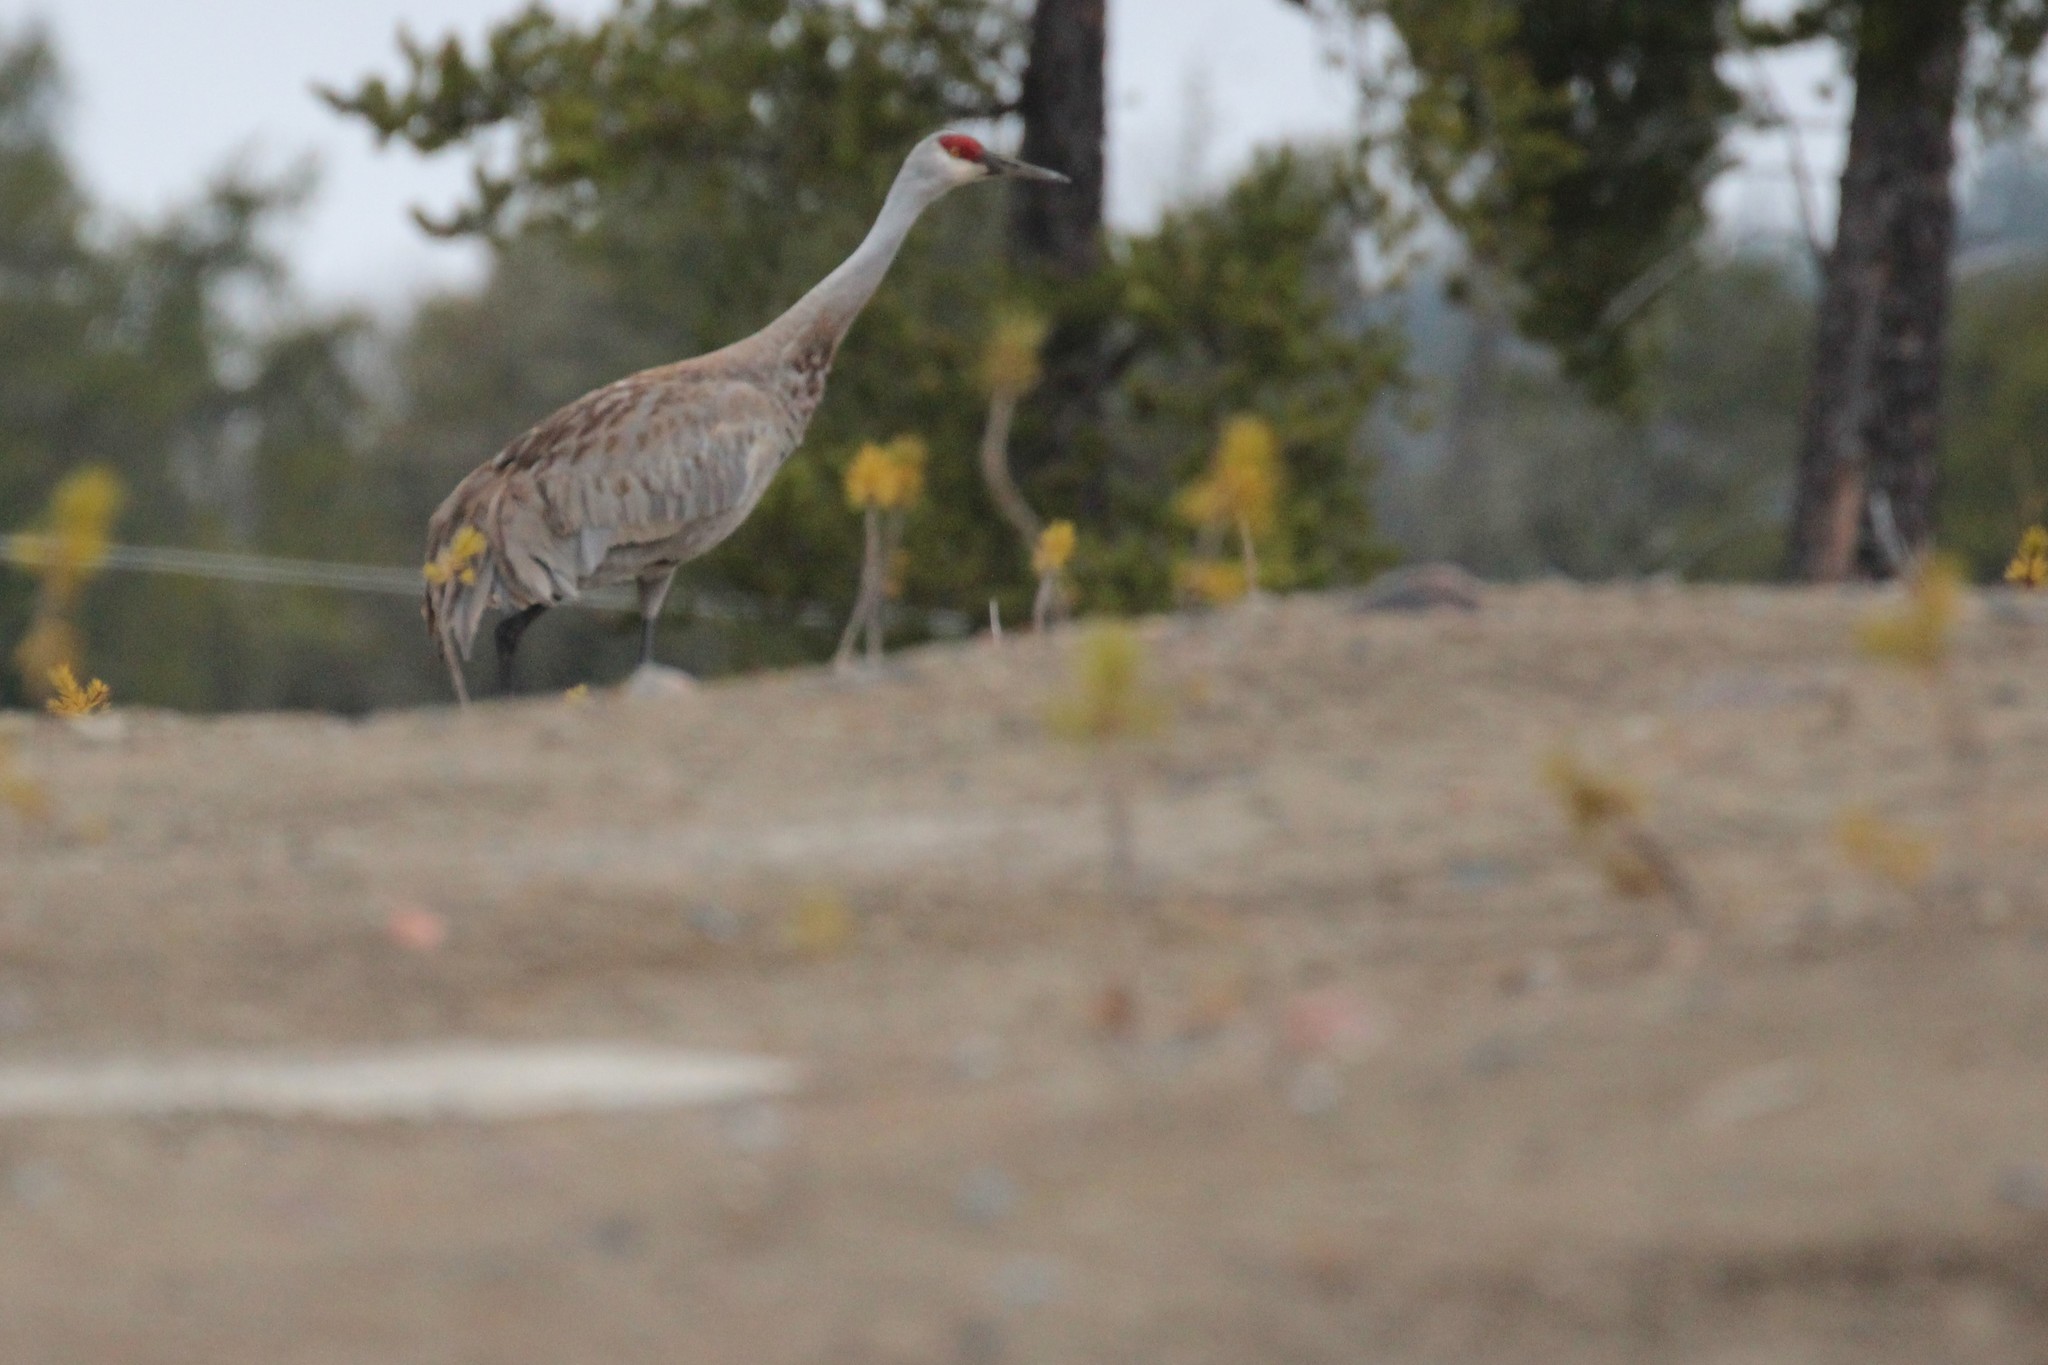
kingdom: Animalia
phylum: Chordata
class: Aves
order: Gruiformes
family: Gruidae
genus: Grus
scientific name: Grus canadensis
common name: Sandhill crane
